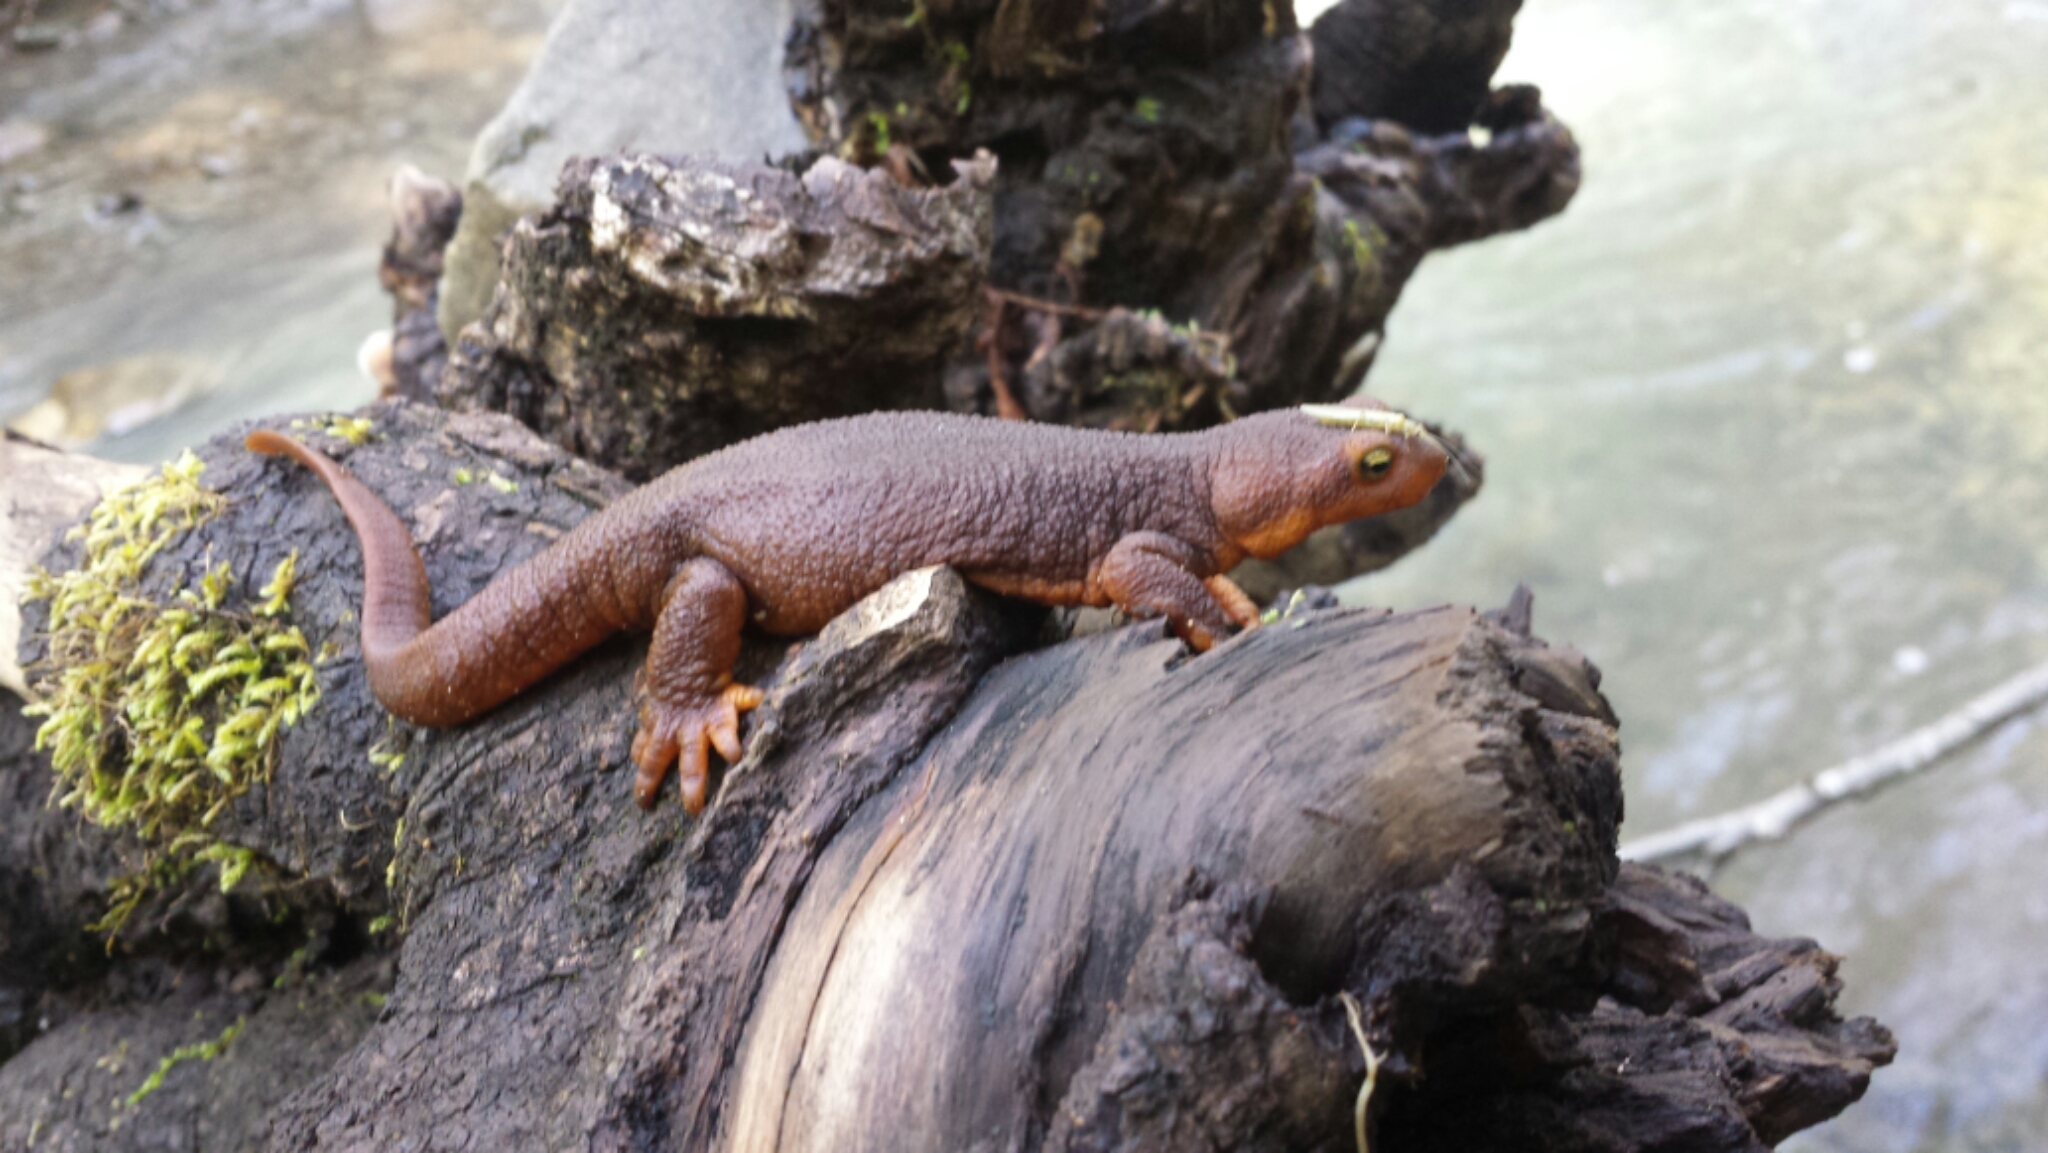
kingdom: Animalia
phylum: Chordata
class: Amphibia
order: Caudata
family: Salamandridae
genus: Taricha
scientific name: Taricha torosa
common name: California newt
